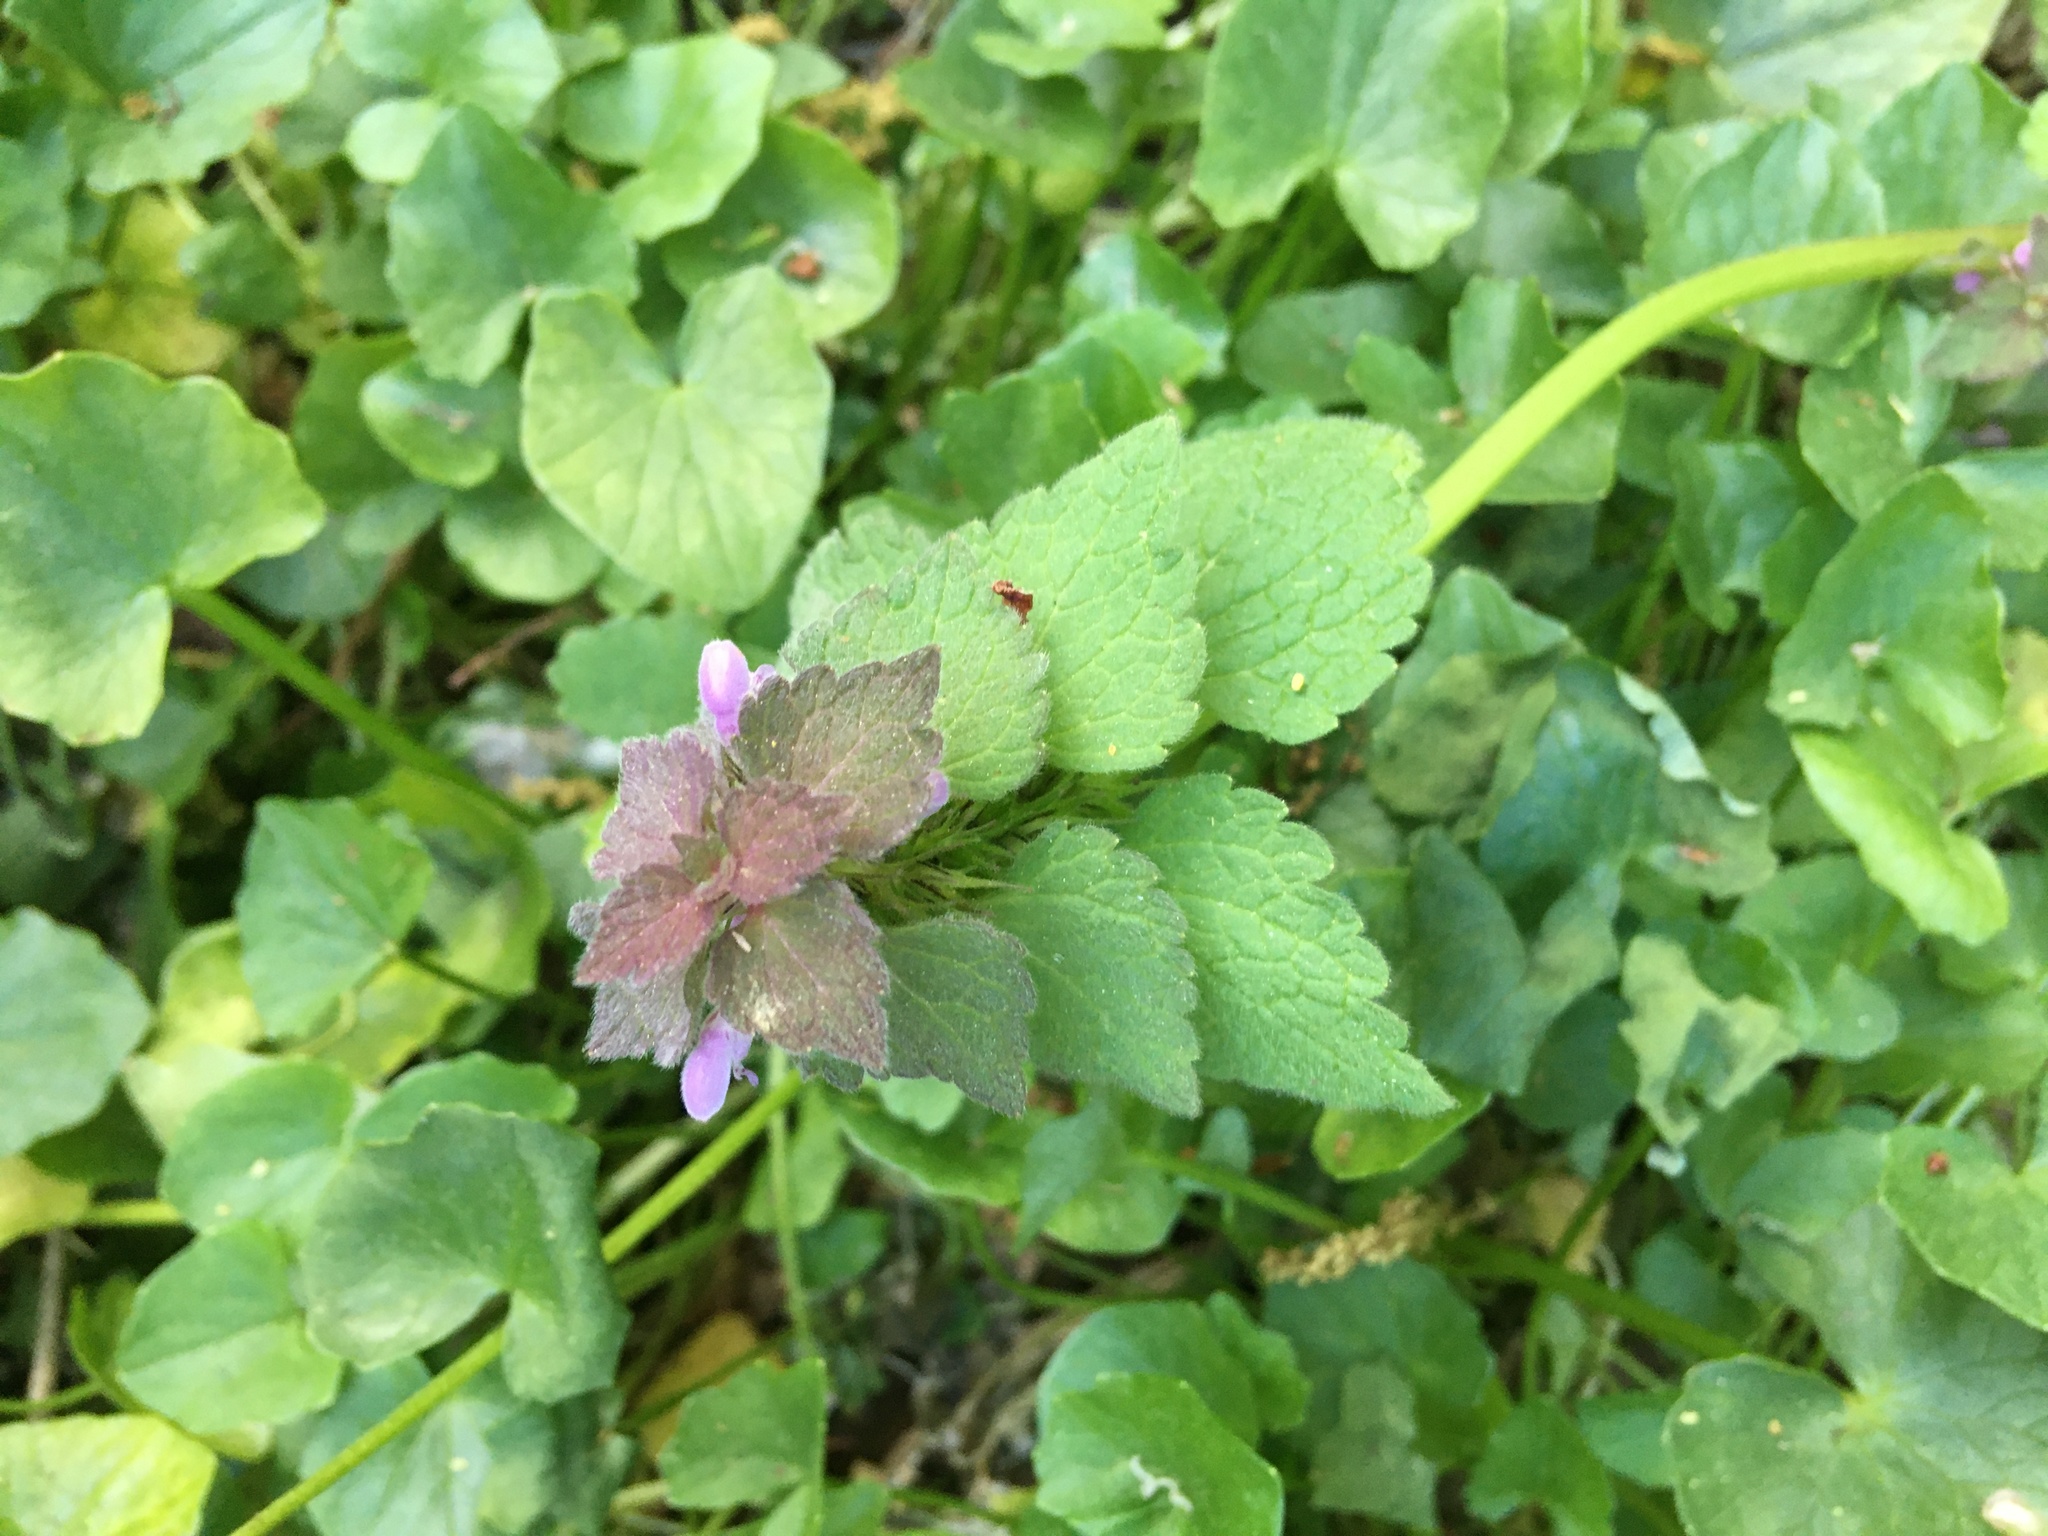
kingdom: Plantae
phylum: Tracheophyta
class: Magnoliopsida
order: Lamiales
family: Lamiaceae
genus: Lamium
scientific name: Lamium purpureum
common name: Red dead-nettle
